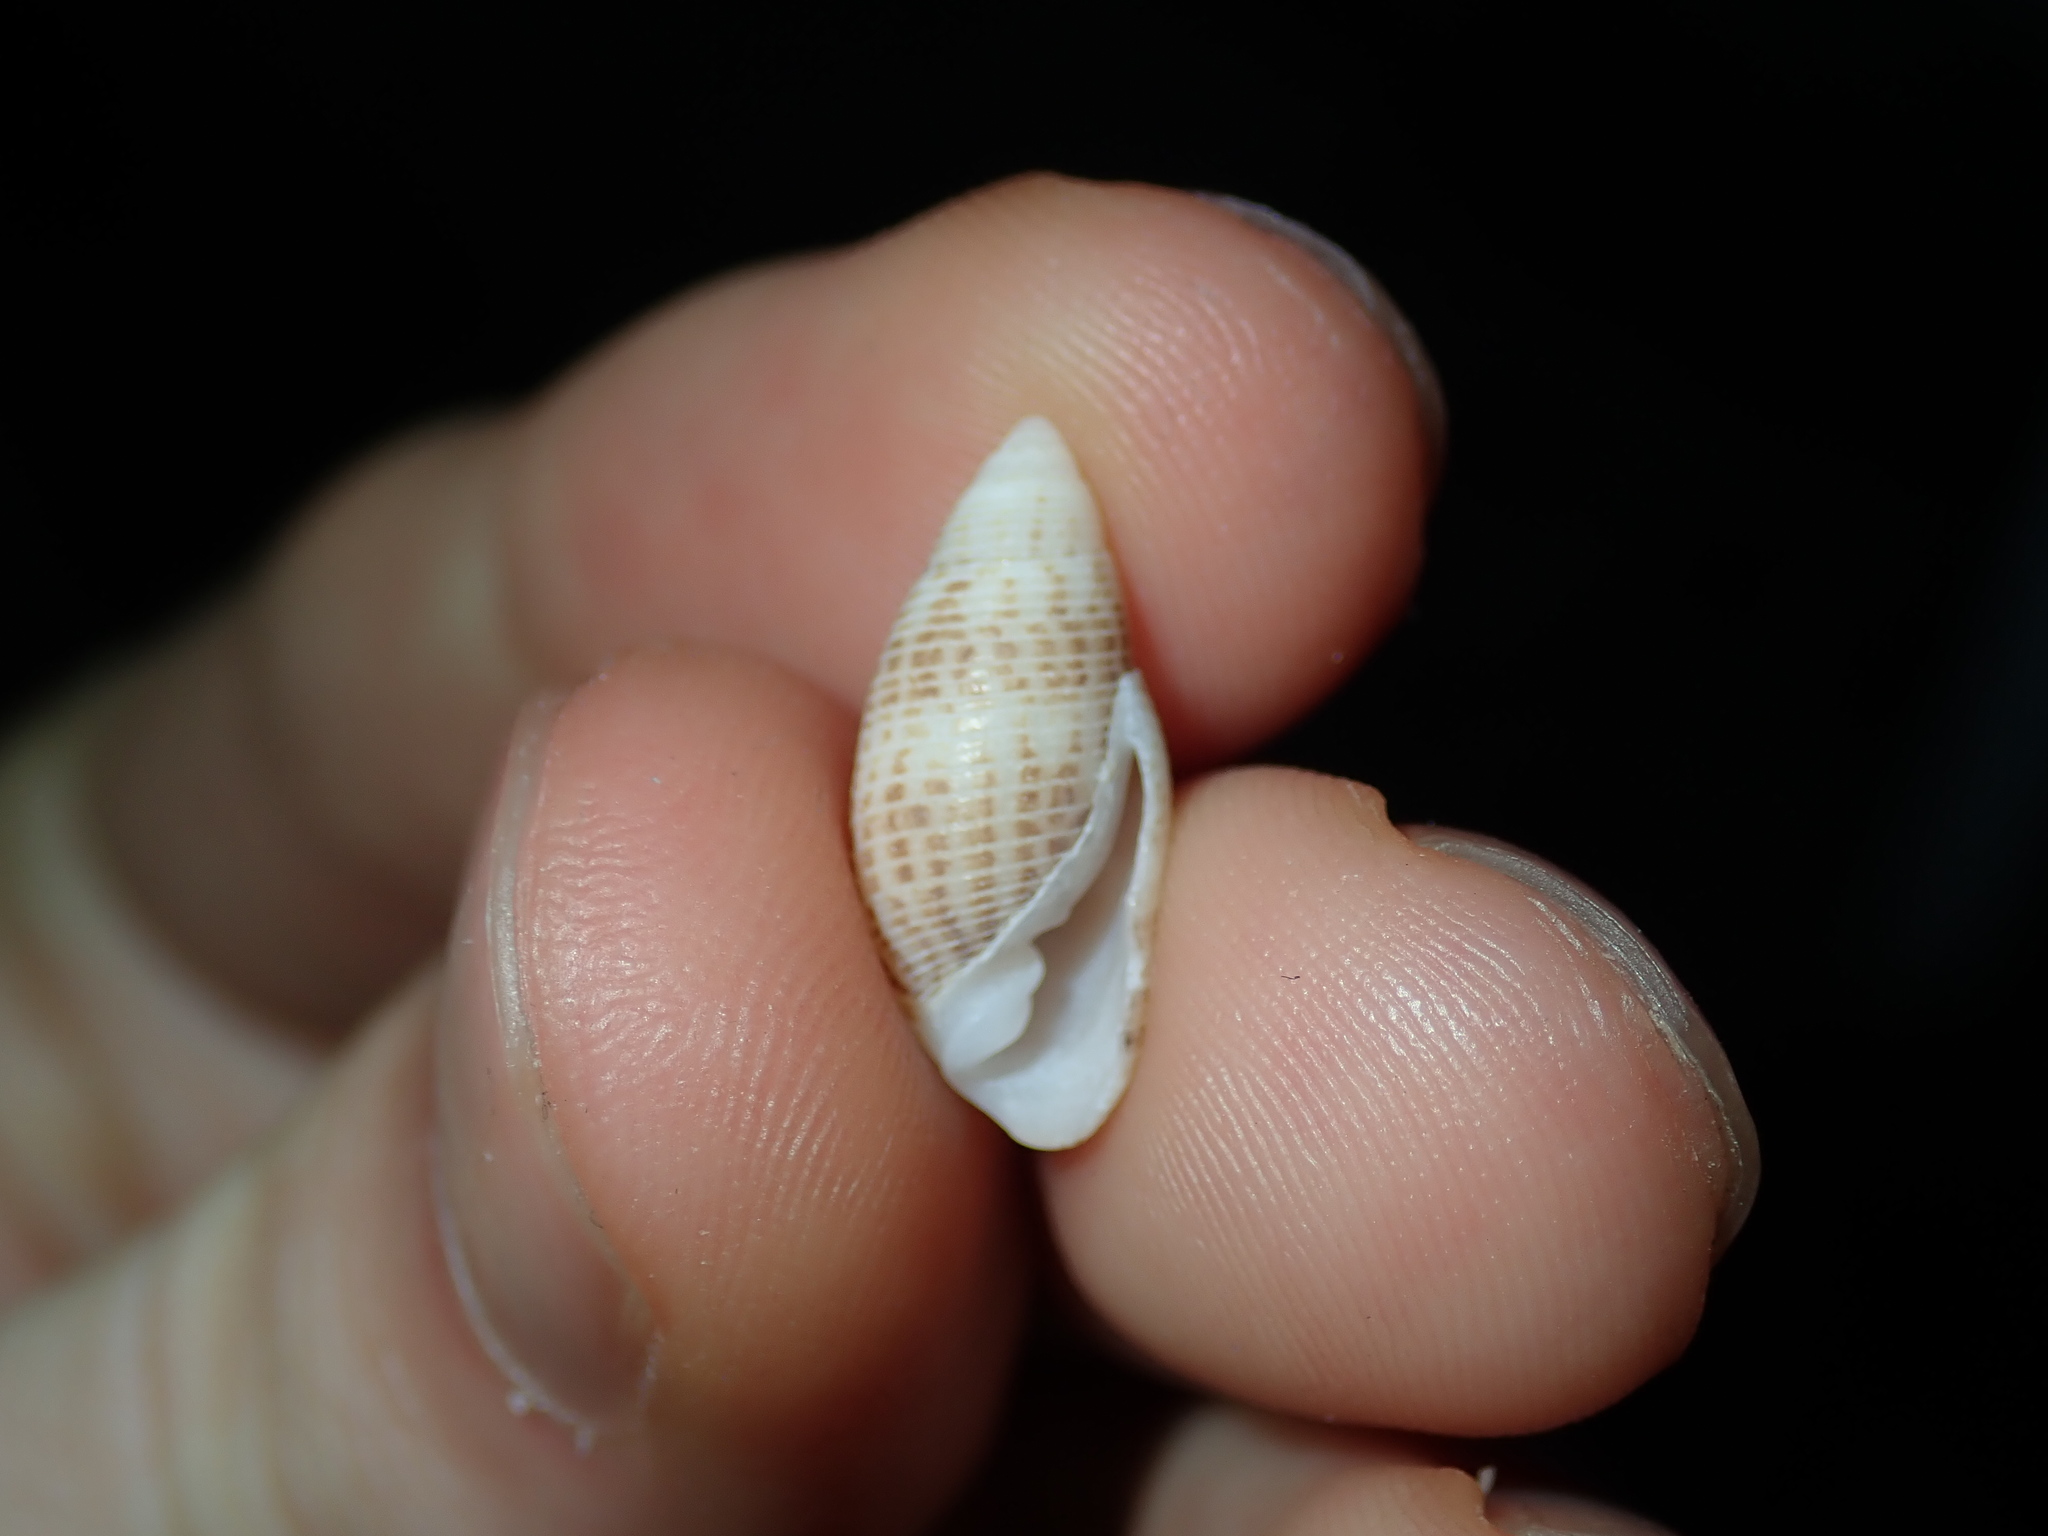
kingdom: Animalia
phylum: Mollusca
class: Gastropoda
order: Cephalaspidea
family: Acteonidae
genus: Pupa
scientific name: Pupa affinis
